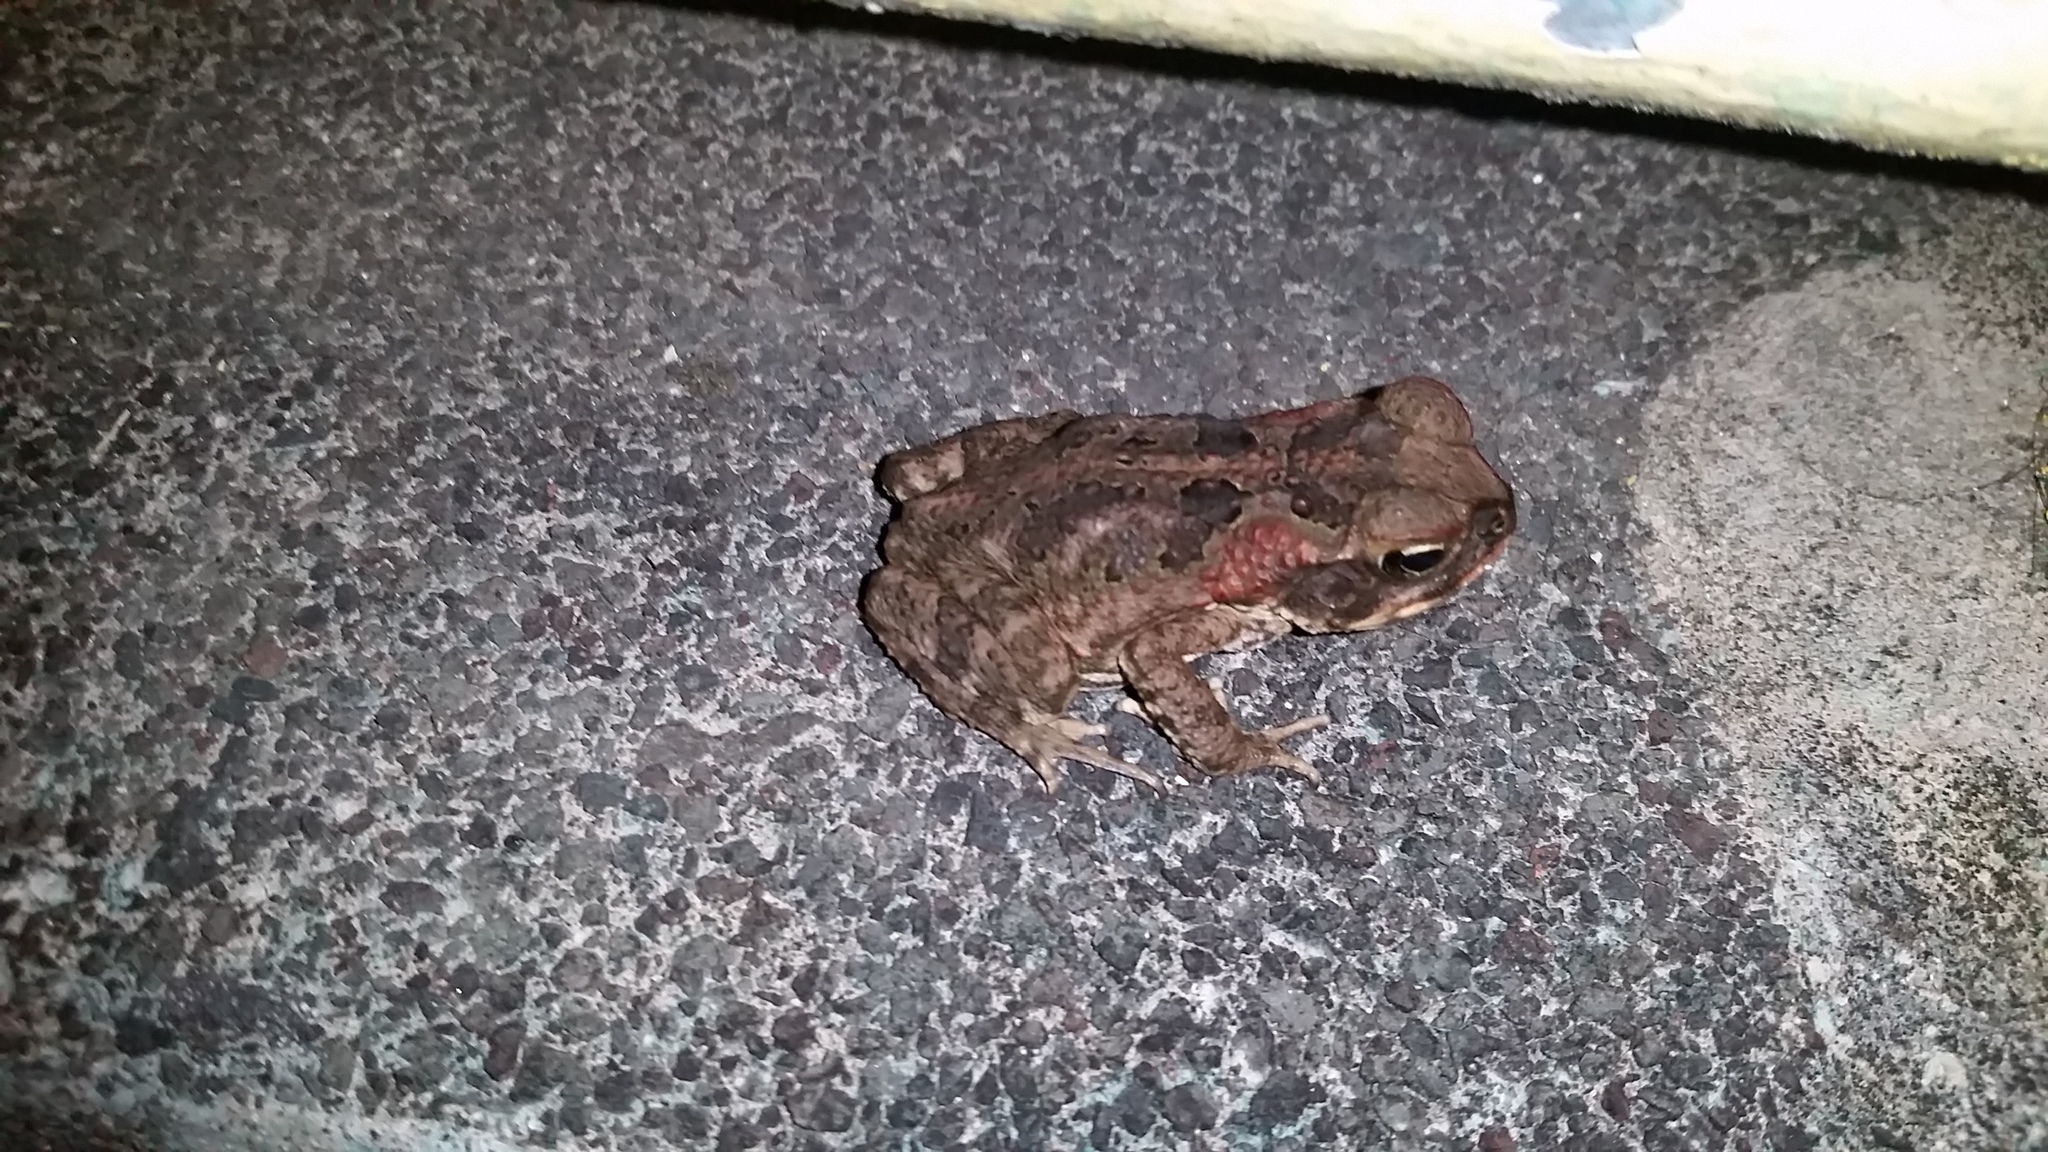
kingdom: Animalia
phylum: Chordata
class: Amphibia
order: Anura
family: Bufonidae
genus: Rhinella
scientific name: Rhinella marina
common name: Cane toad
